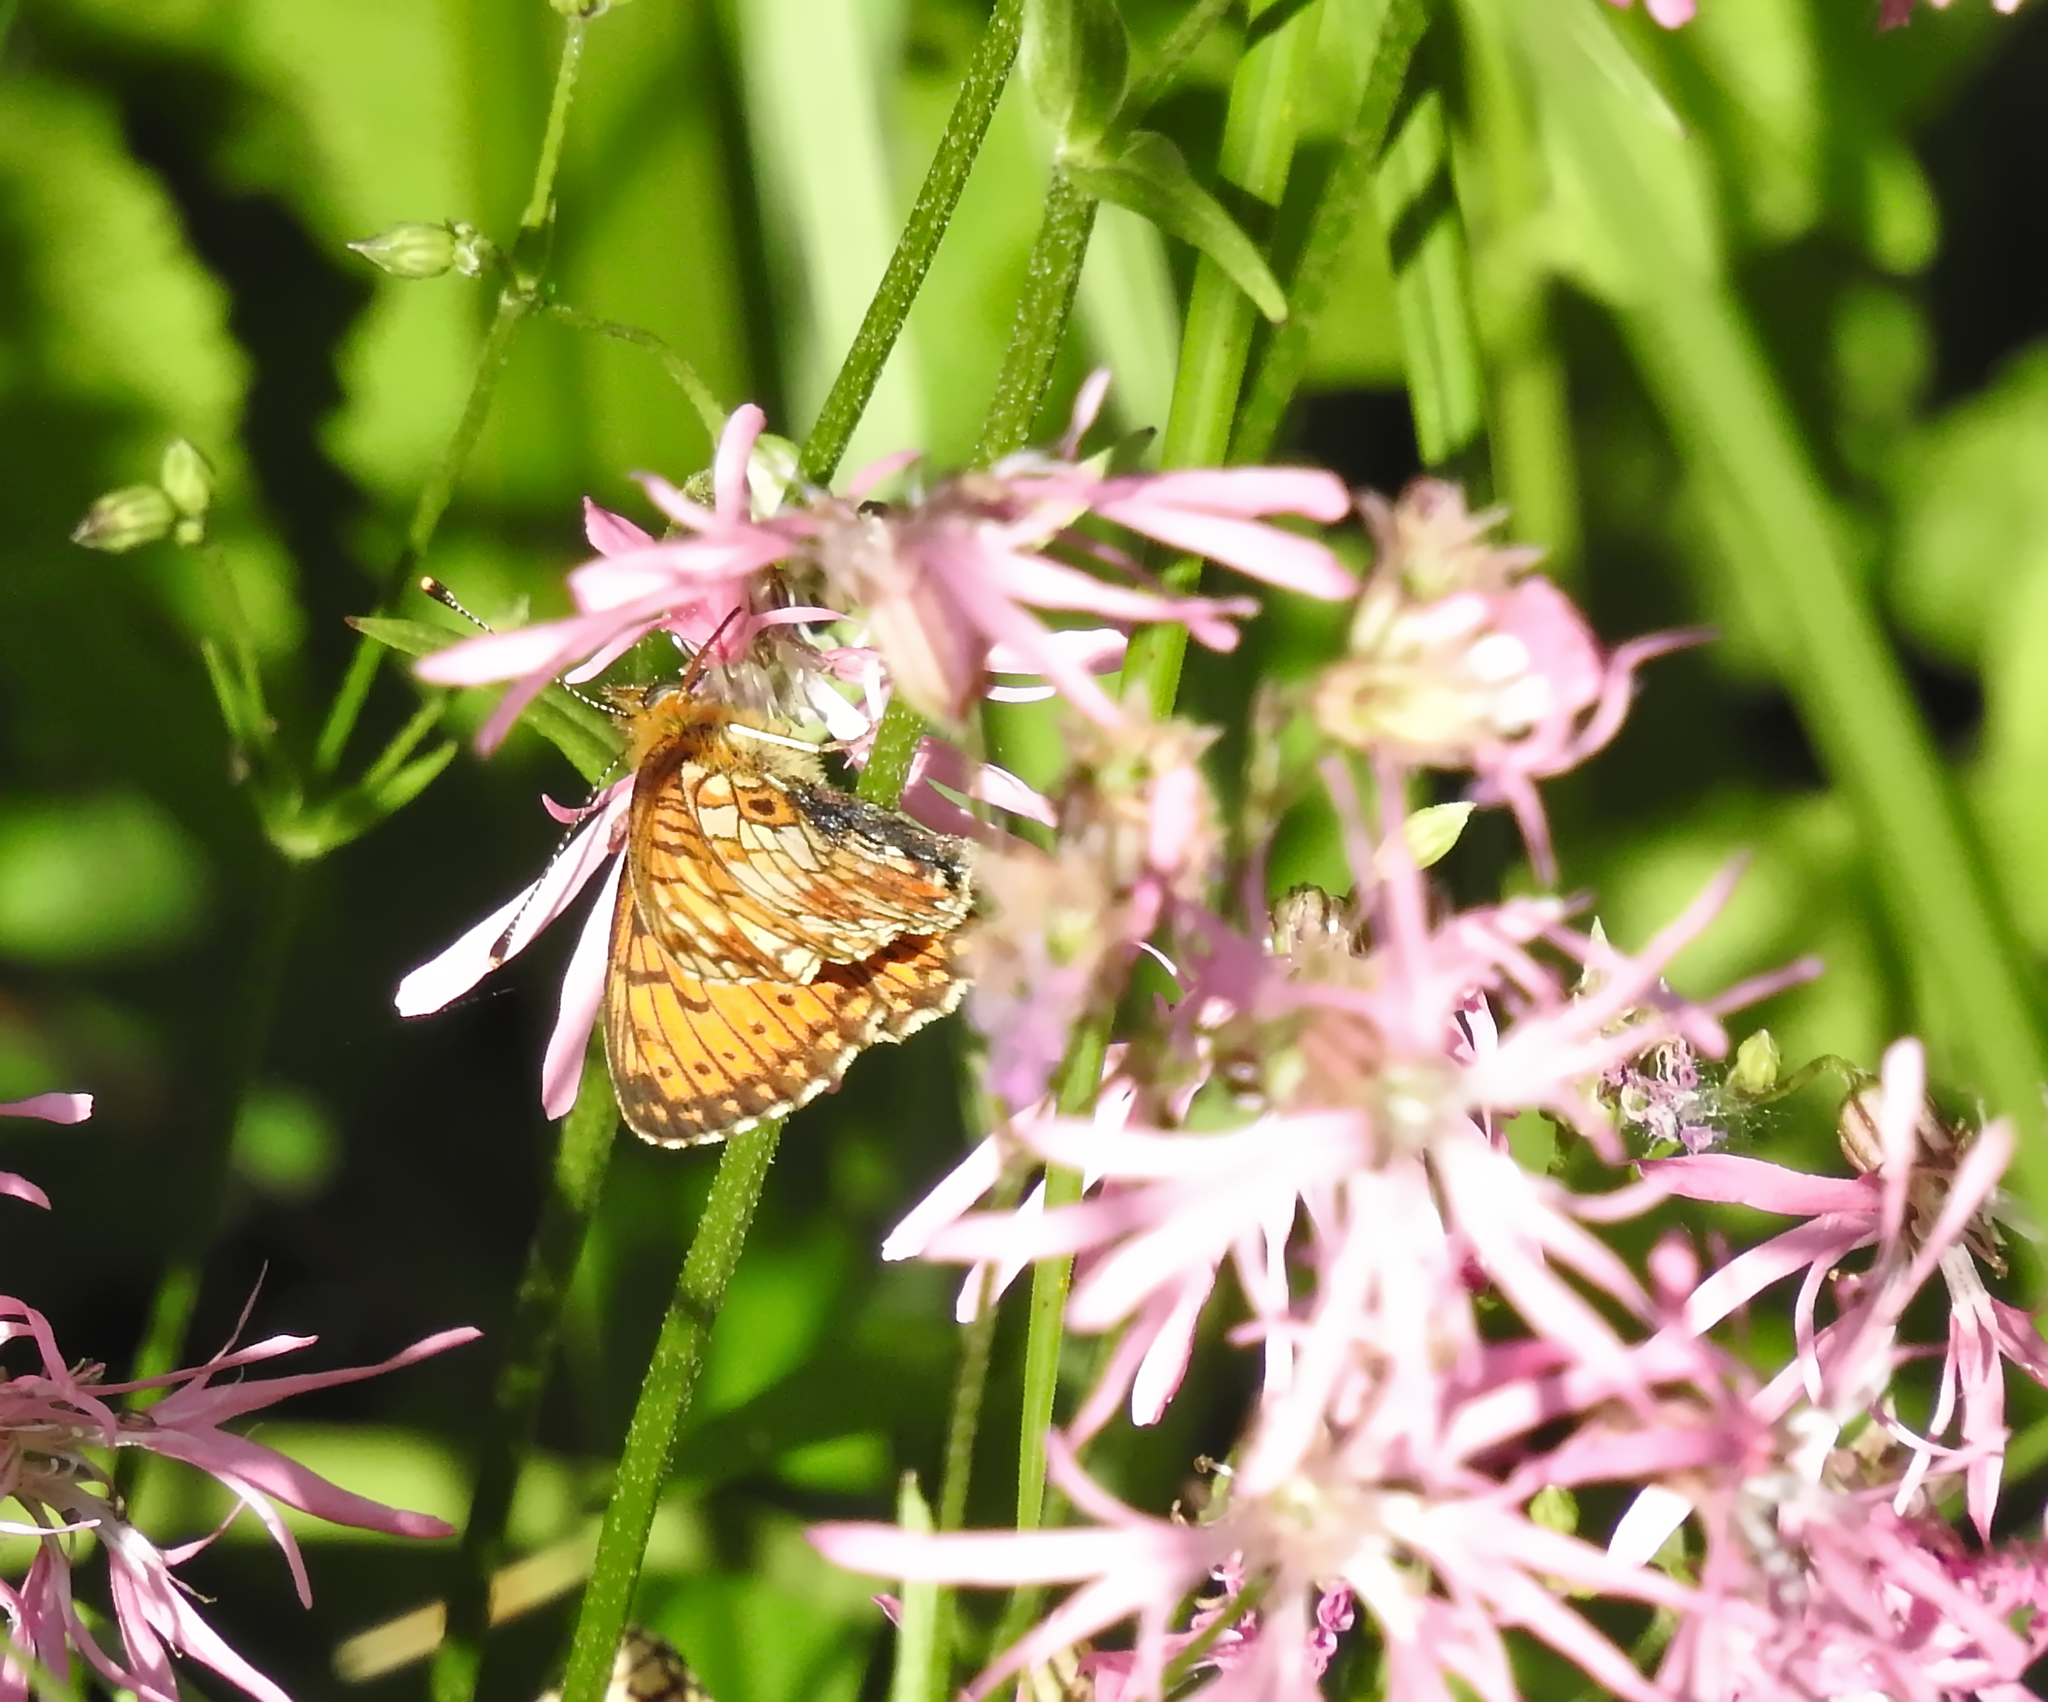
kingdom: Animalia
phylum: Arthropoda
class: Insecta
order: Lepidoptera
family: Nymphalidae
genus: Boloria
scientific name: Boloria selene
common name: Small pearl-bordered fritillary
